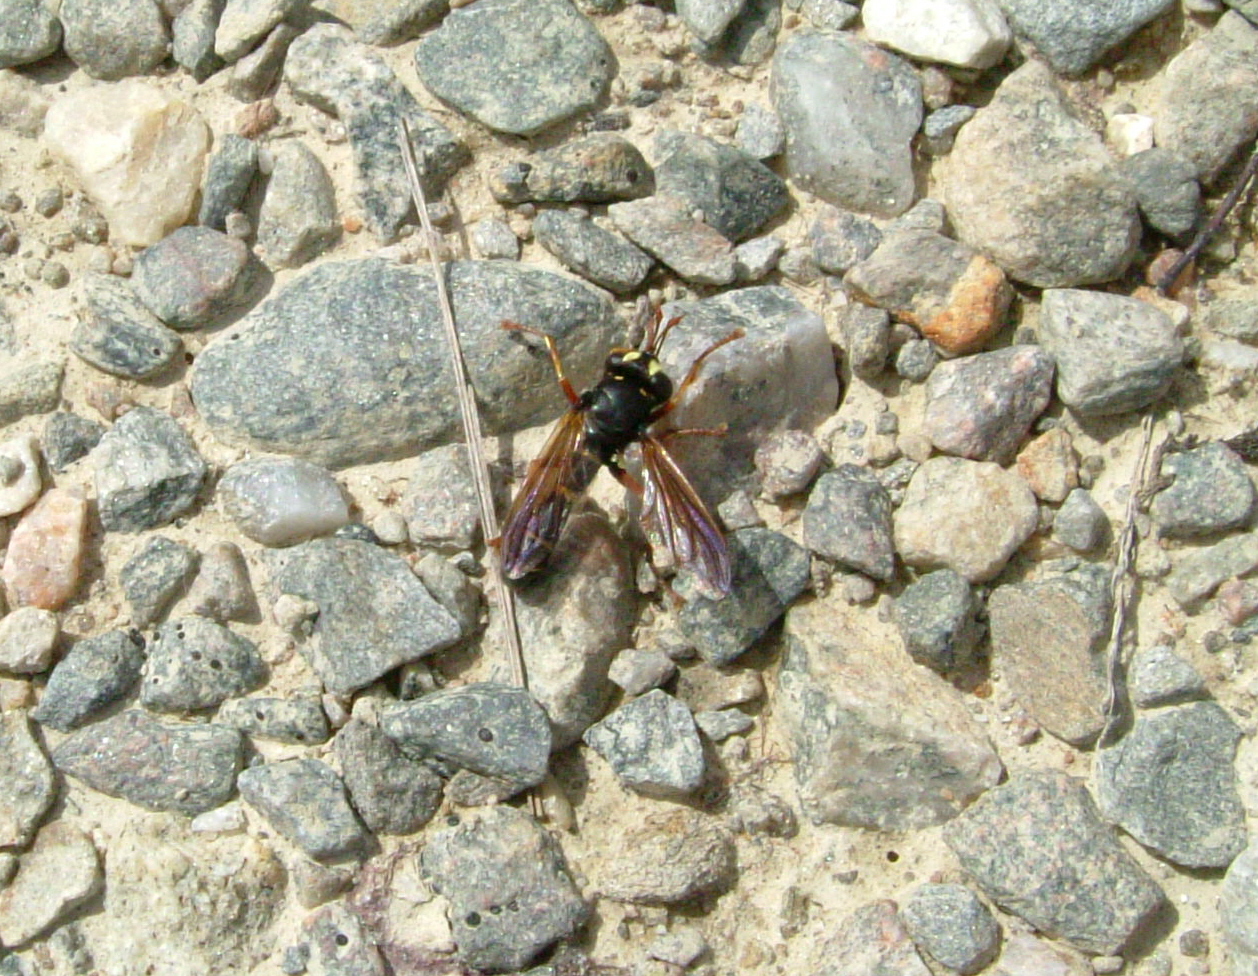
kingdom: Animalia
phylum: Arthropoda
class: Insecta
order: Diptera
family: Conopidae
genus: Physocephala
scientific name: Physocephala nigra
